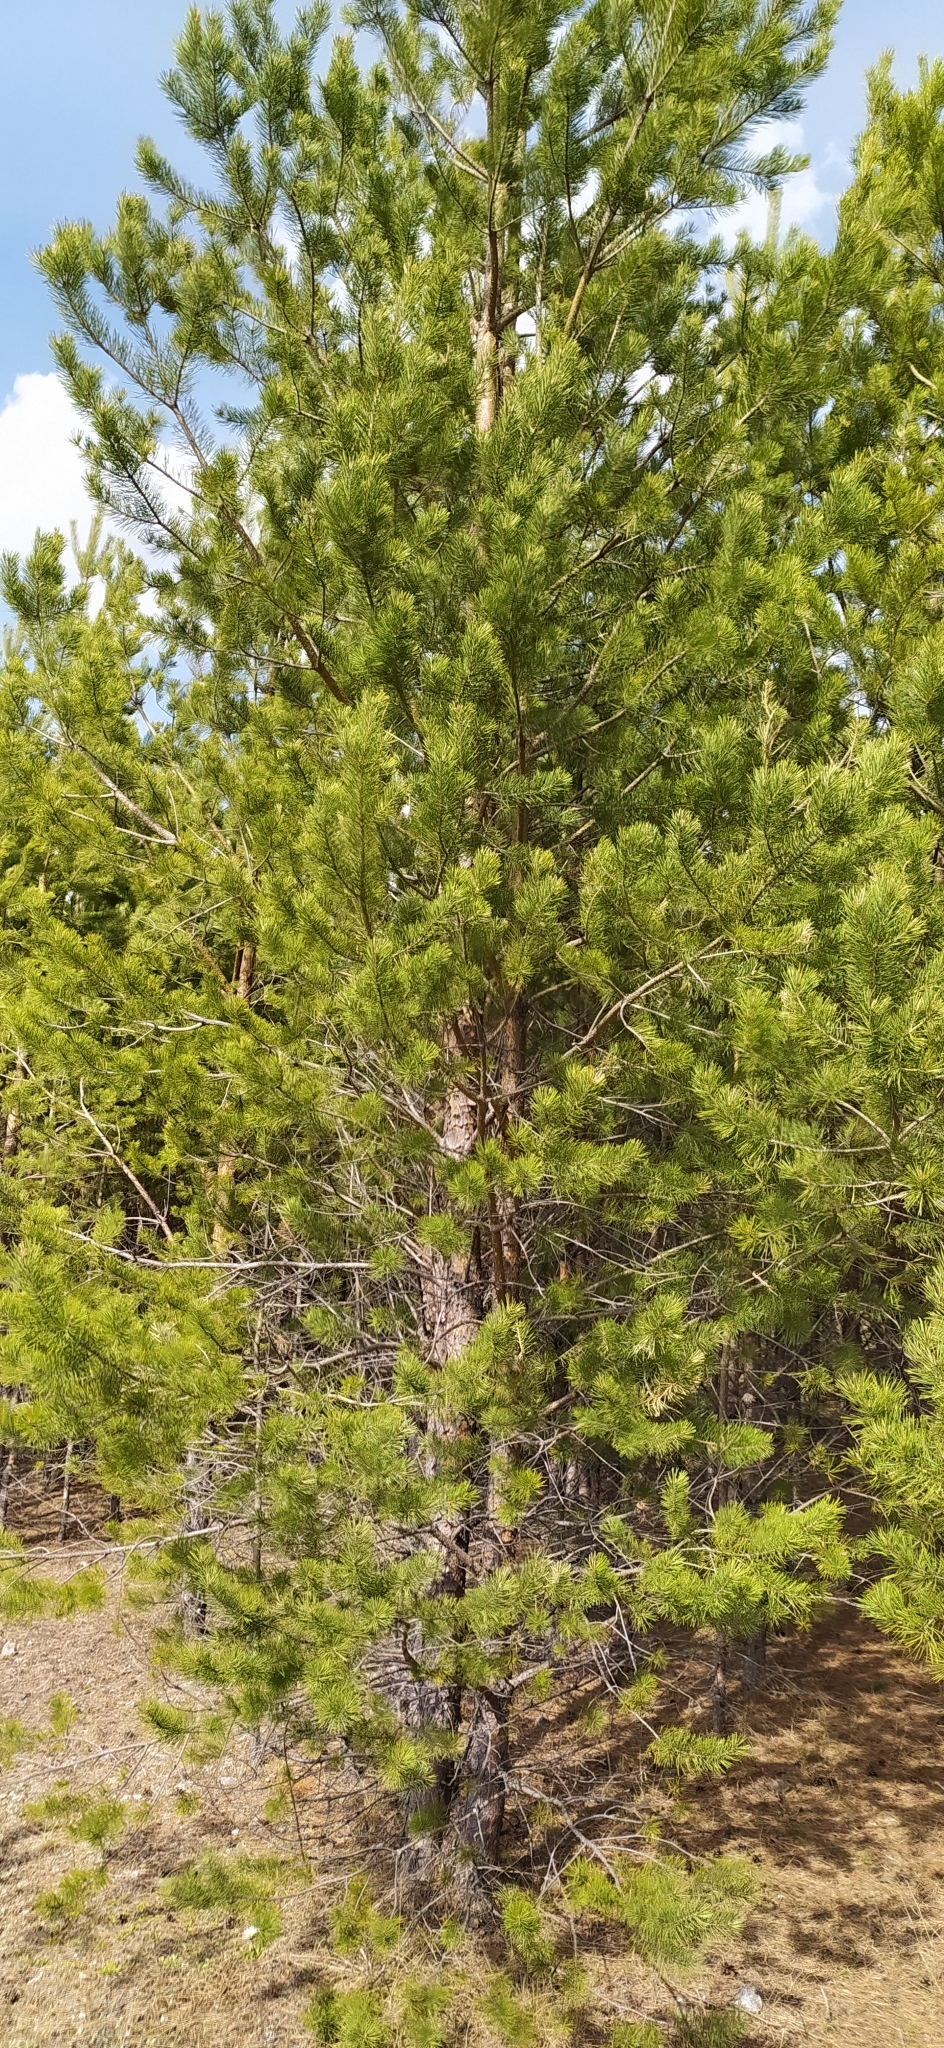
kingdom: Plantae
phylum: Tracheophyta
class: Pinopsida
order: Pinales
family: Pinaceae
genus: Pinus
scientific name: Pinus sylvestris
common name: Scots pine
